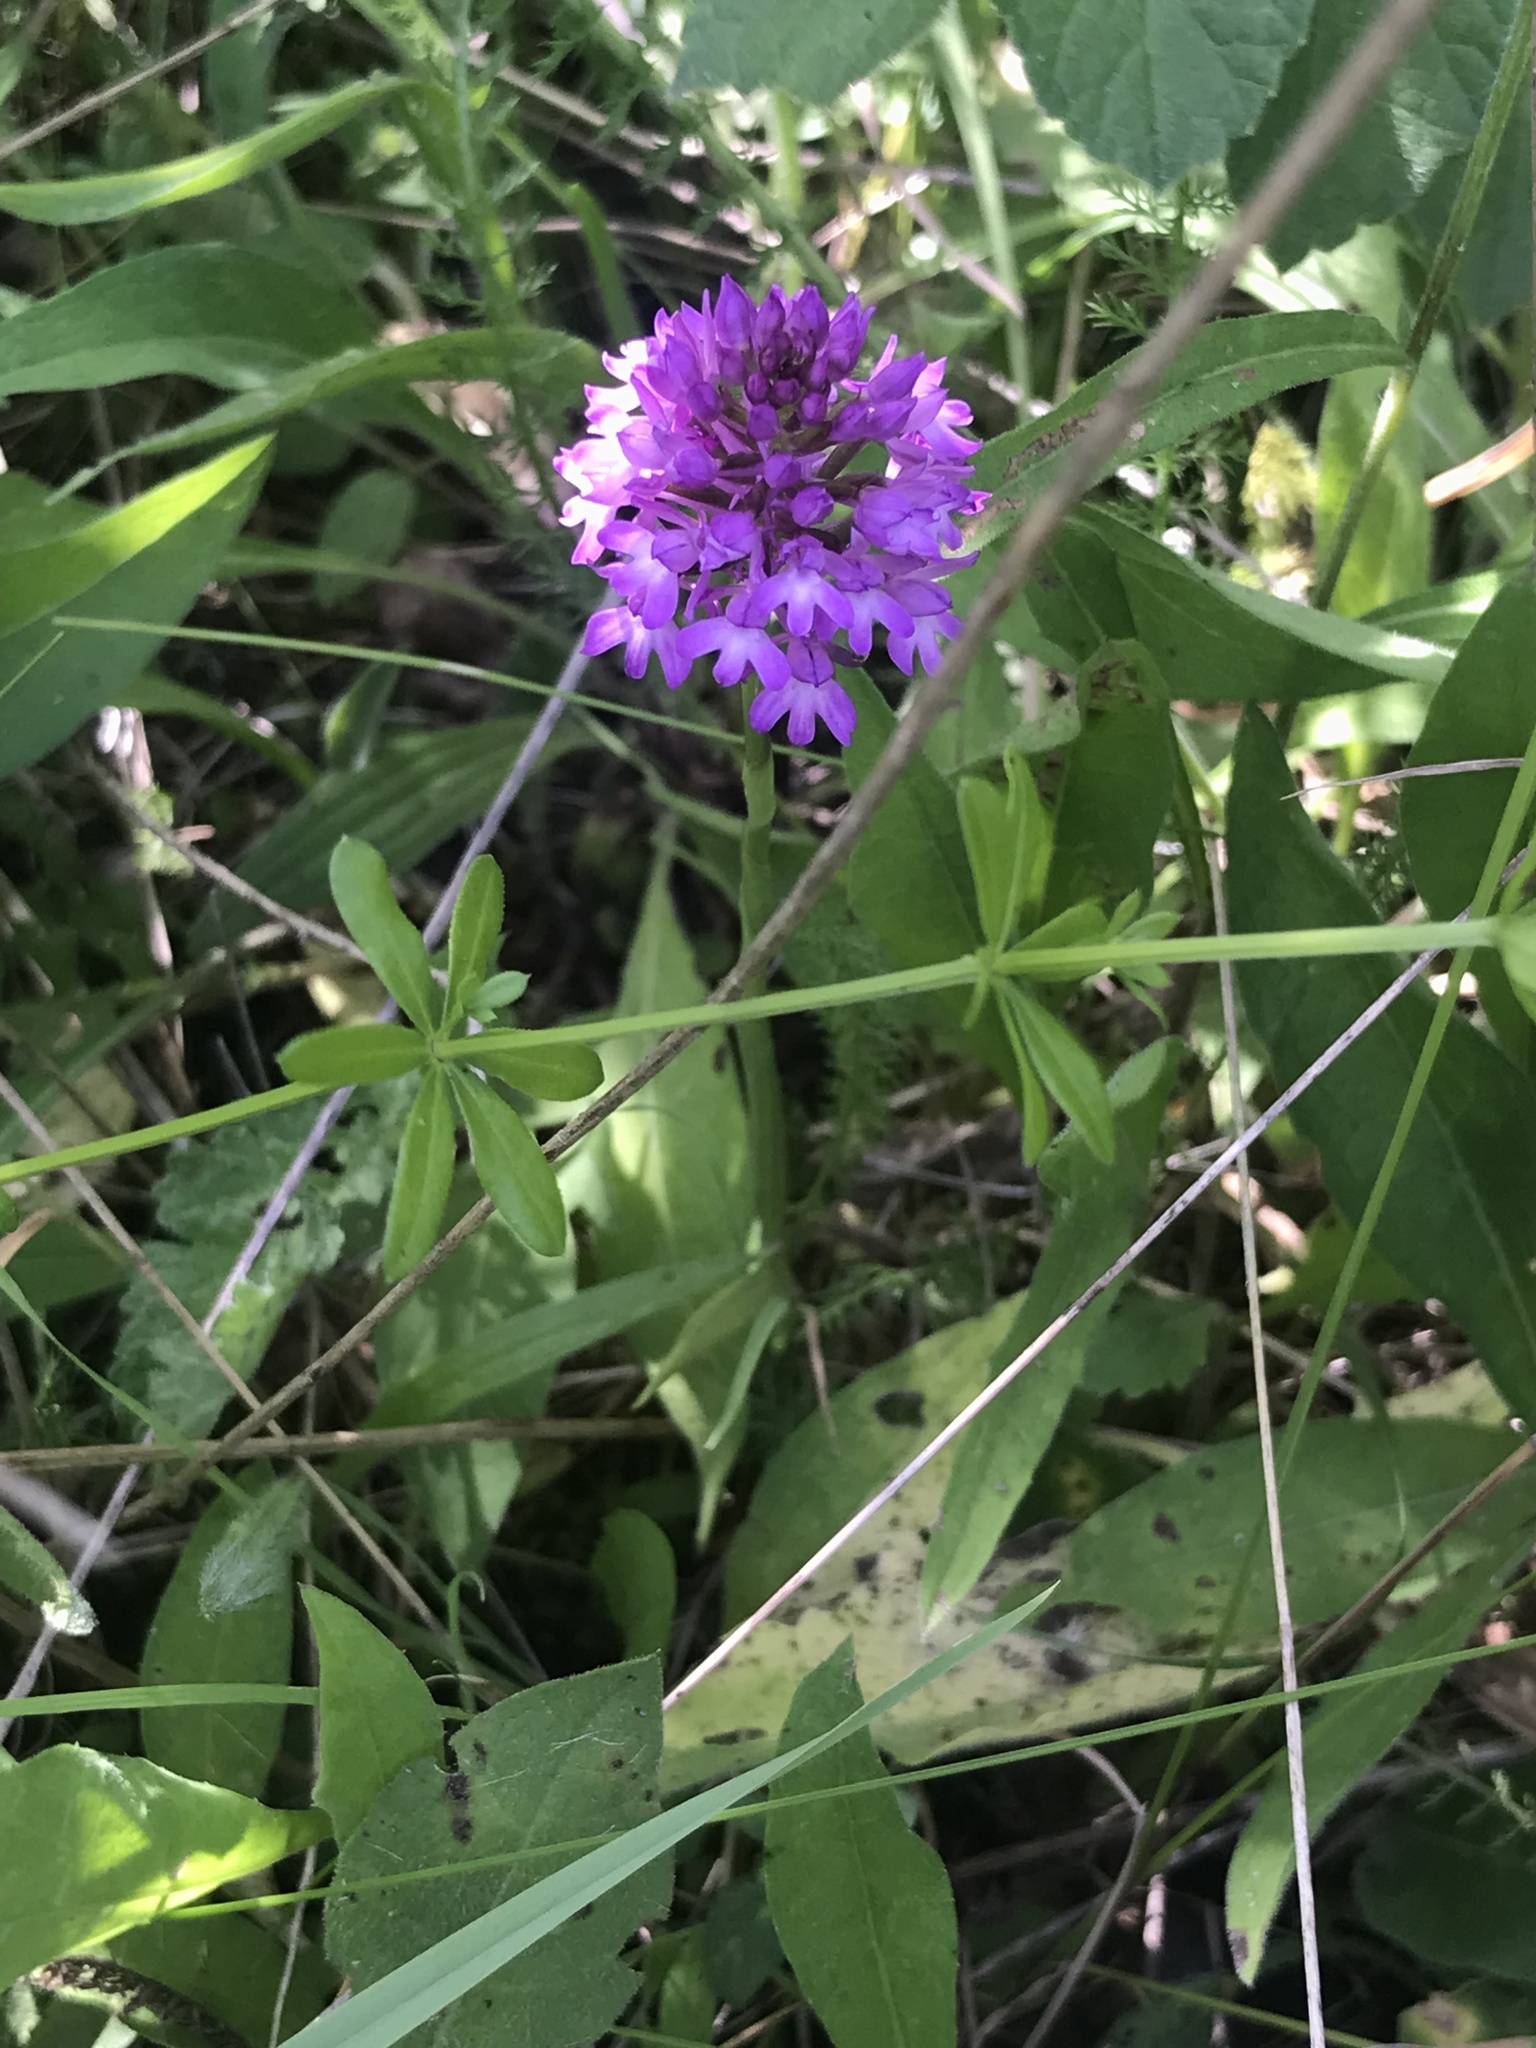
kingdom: Plantae
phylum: Tracheophyta
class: Liliopsida
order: Asparagales
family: Orchidaceae
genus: Anacamptis
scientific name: Anacamptis pyramidalis
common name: Pyramidal orchid
